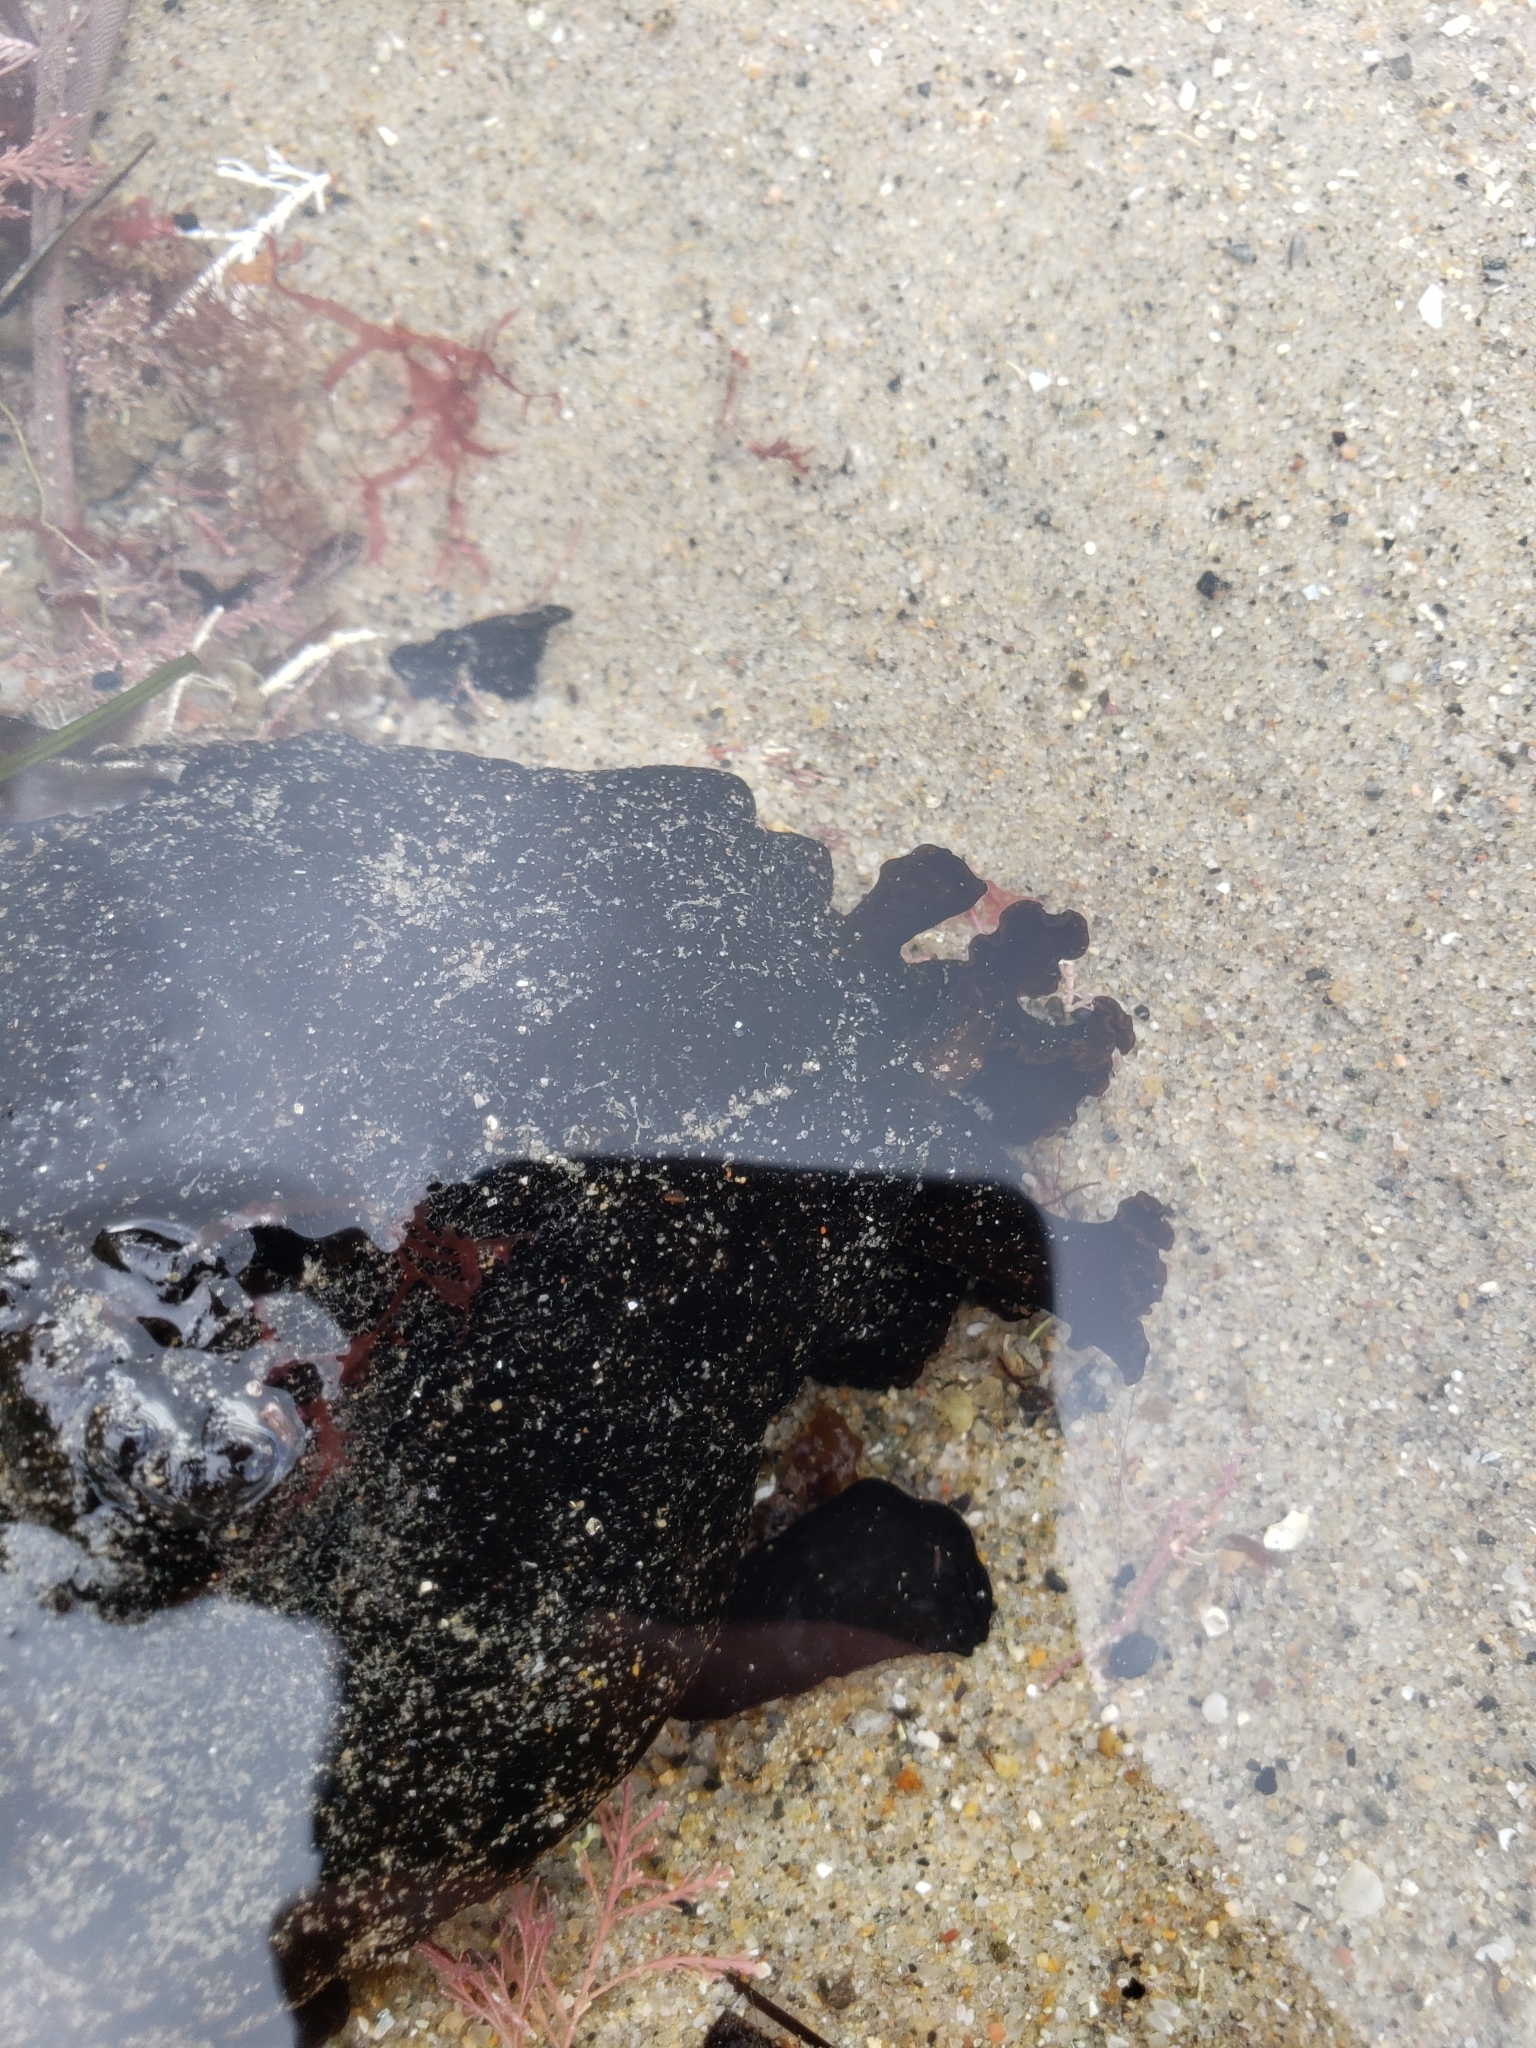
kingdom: Animalia
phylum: Mollusca
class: Gastropoda
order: Aplysiida
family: Aplysiidae
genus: Aplysia
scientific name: Aplysia vaccaria
